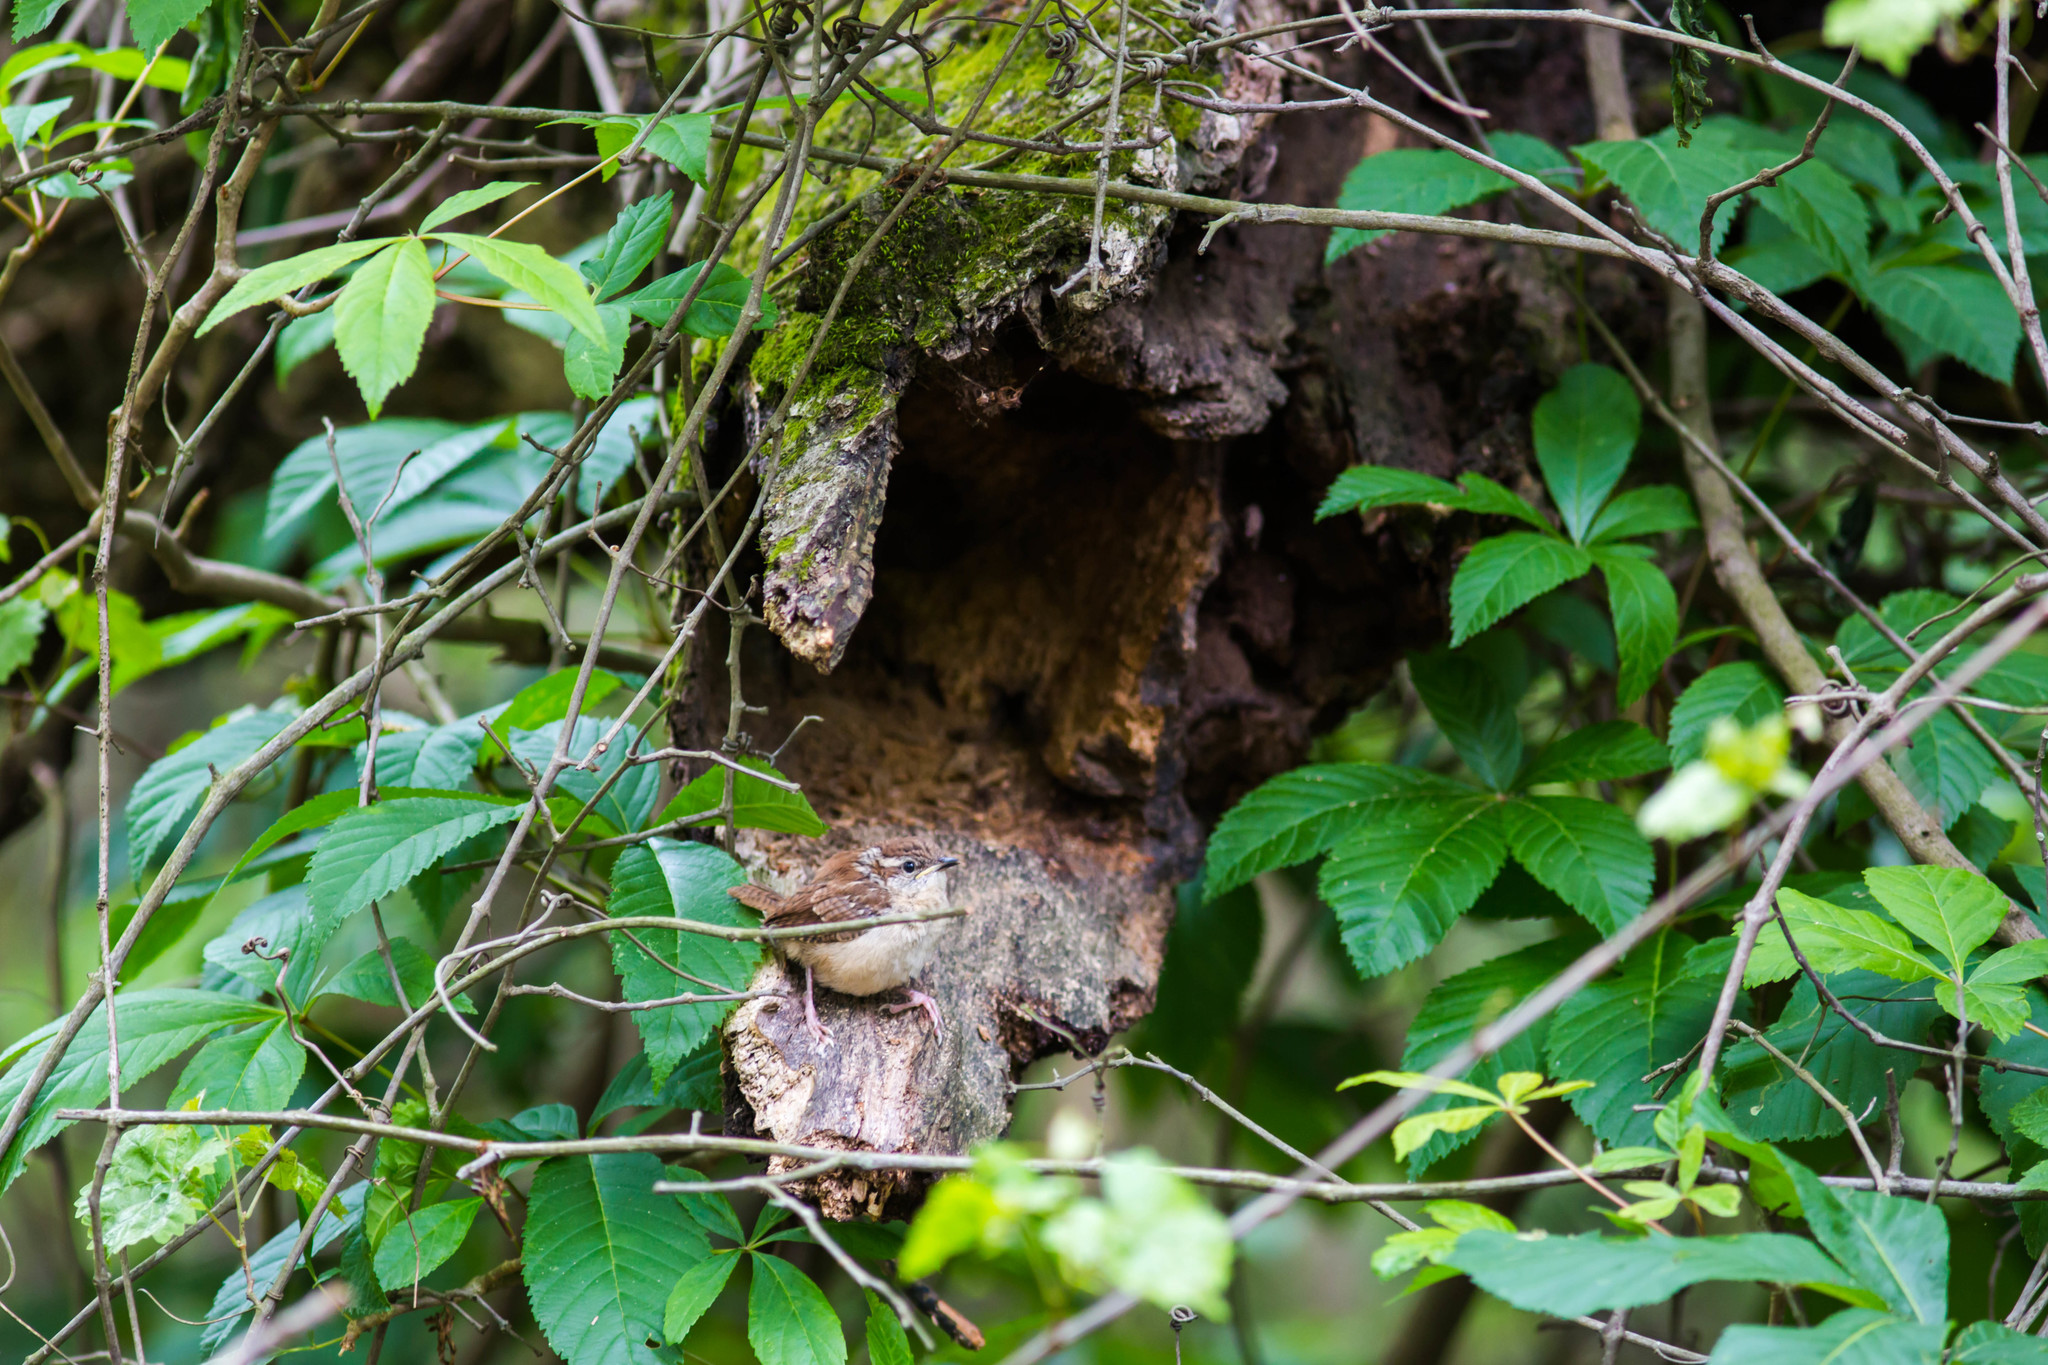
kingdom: Animalia
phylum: Chordata
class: Aves
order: Passeriformes
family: Troglodytidae
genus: Thryothorus
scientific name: Thryothorus ludovicianus
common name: Carolina wren
